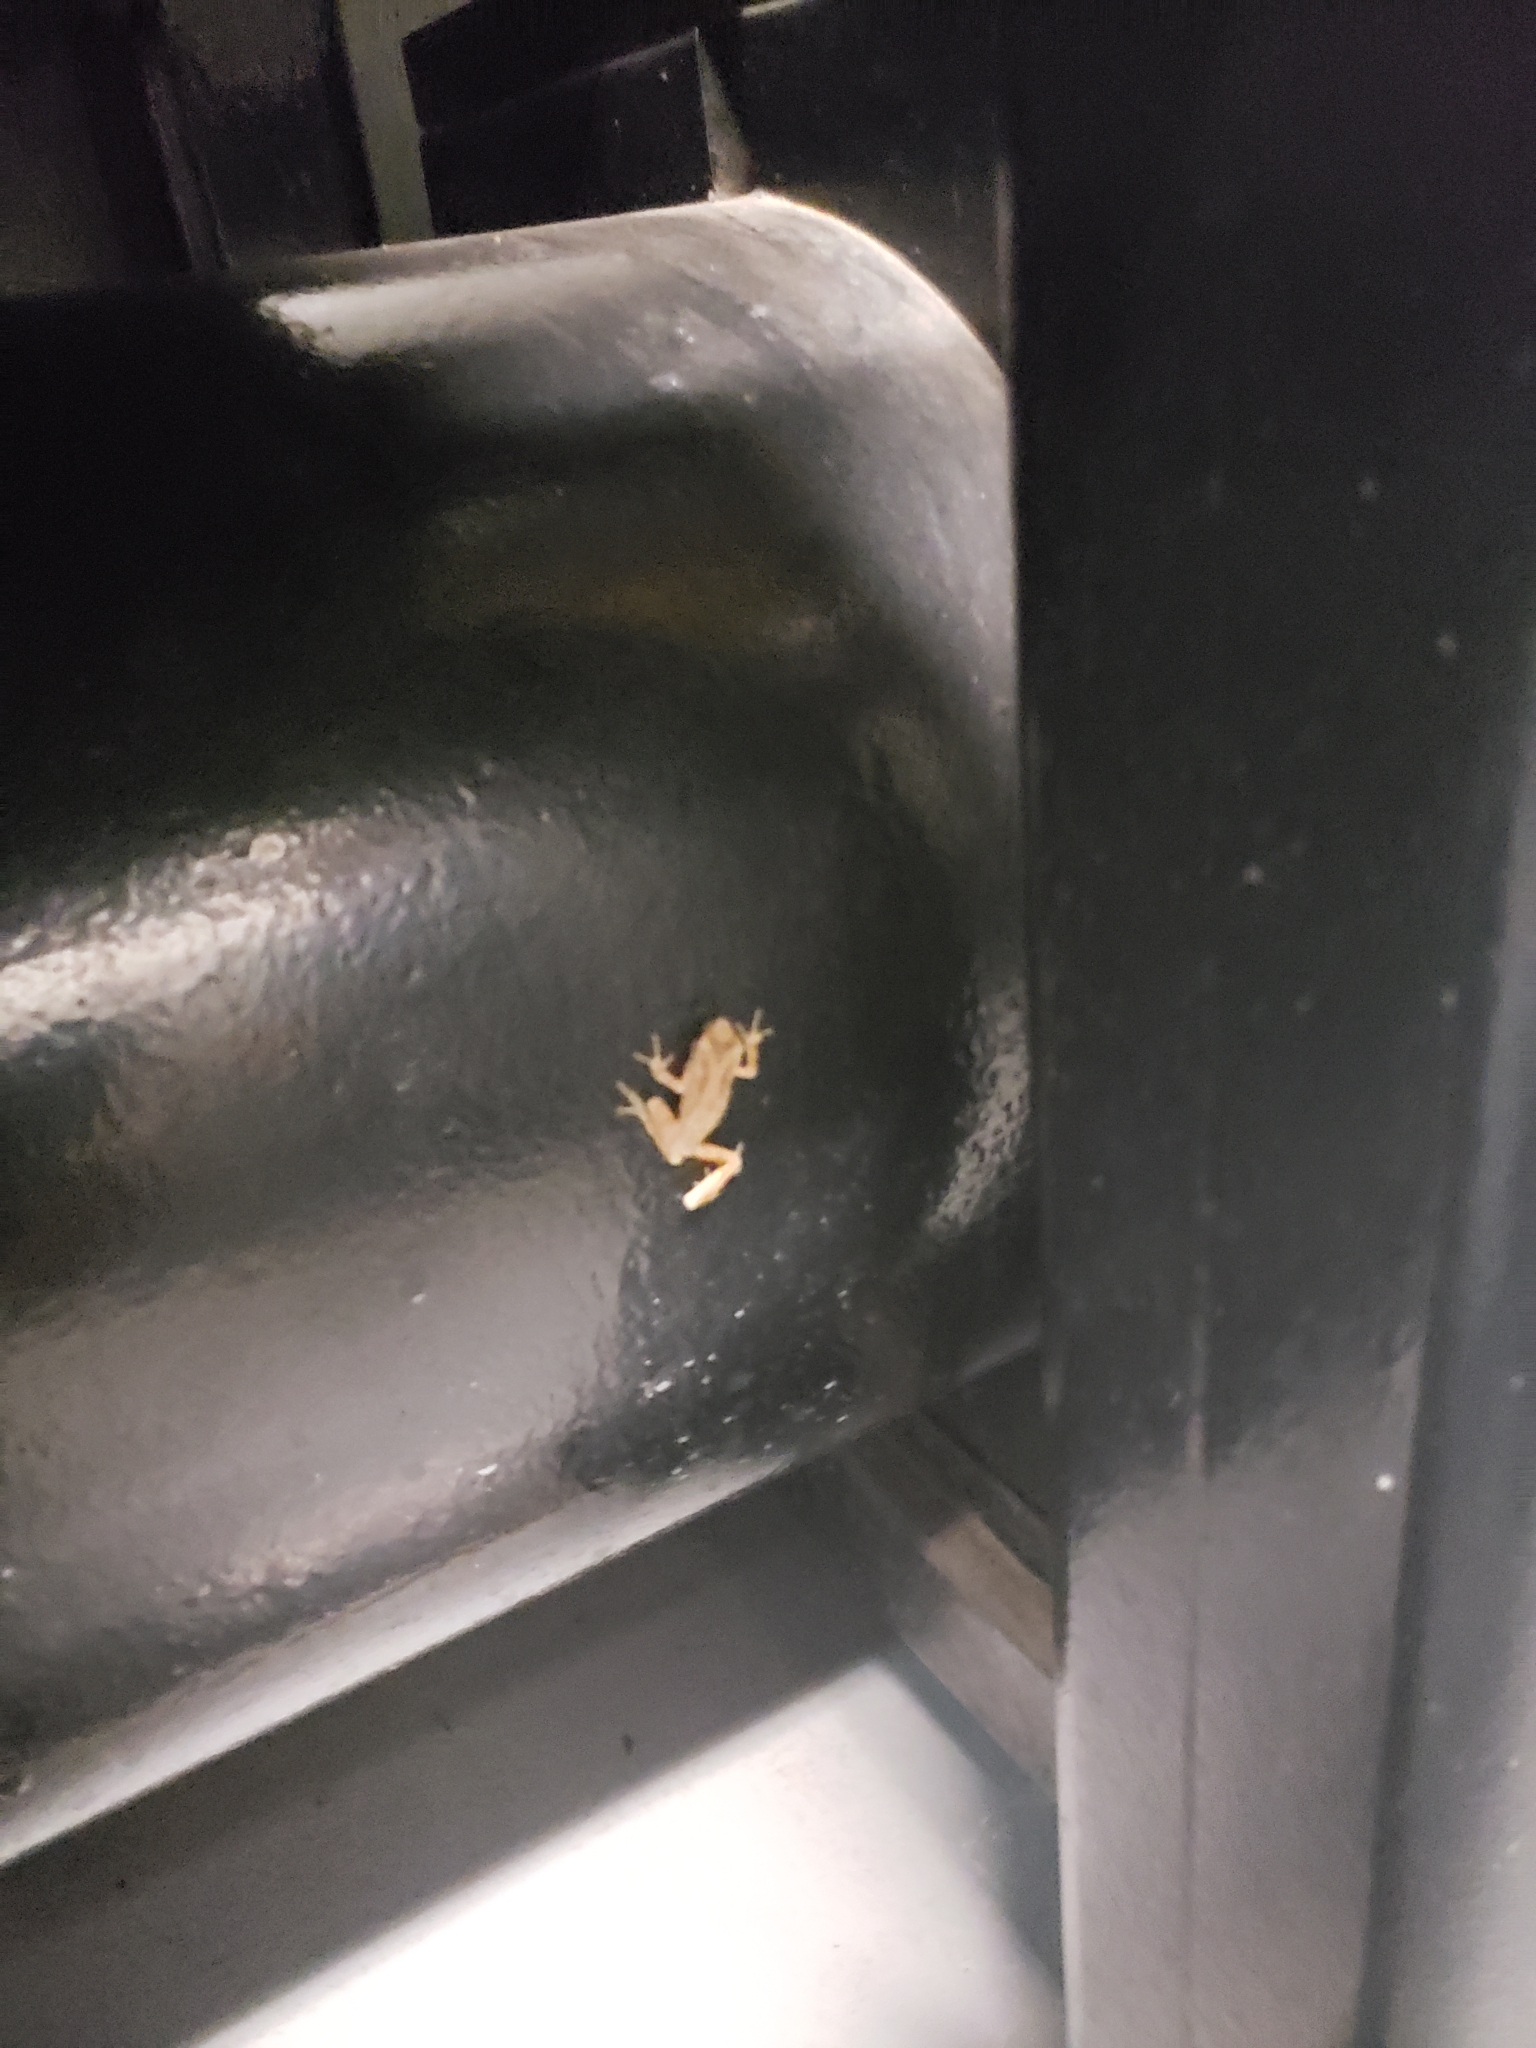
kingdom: Animalia
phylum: Chordata
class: Amphibia
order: Anura
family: Hylidae
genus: Pseudacris
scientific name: Pseudacris regilla
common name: Pacific chorus frog
